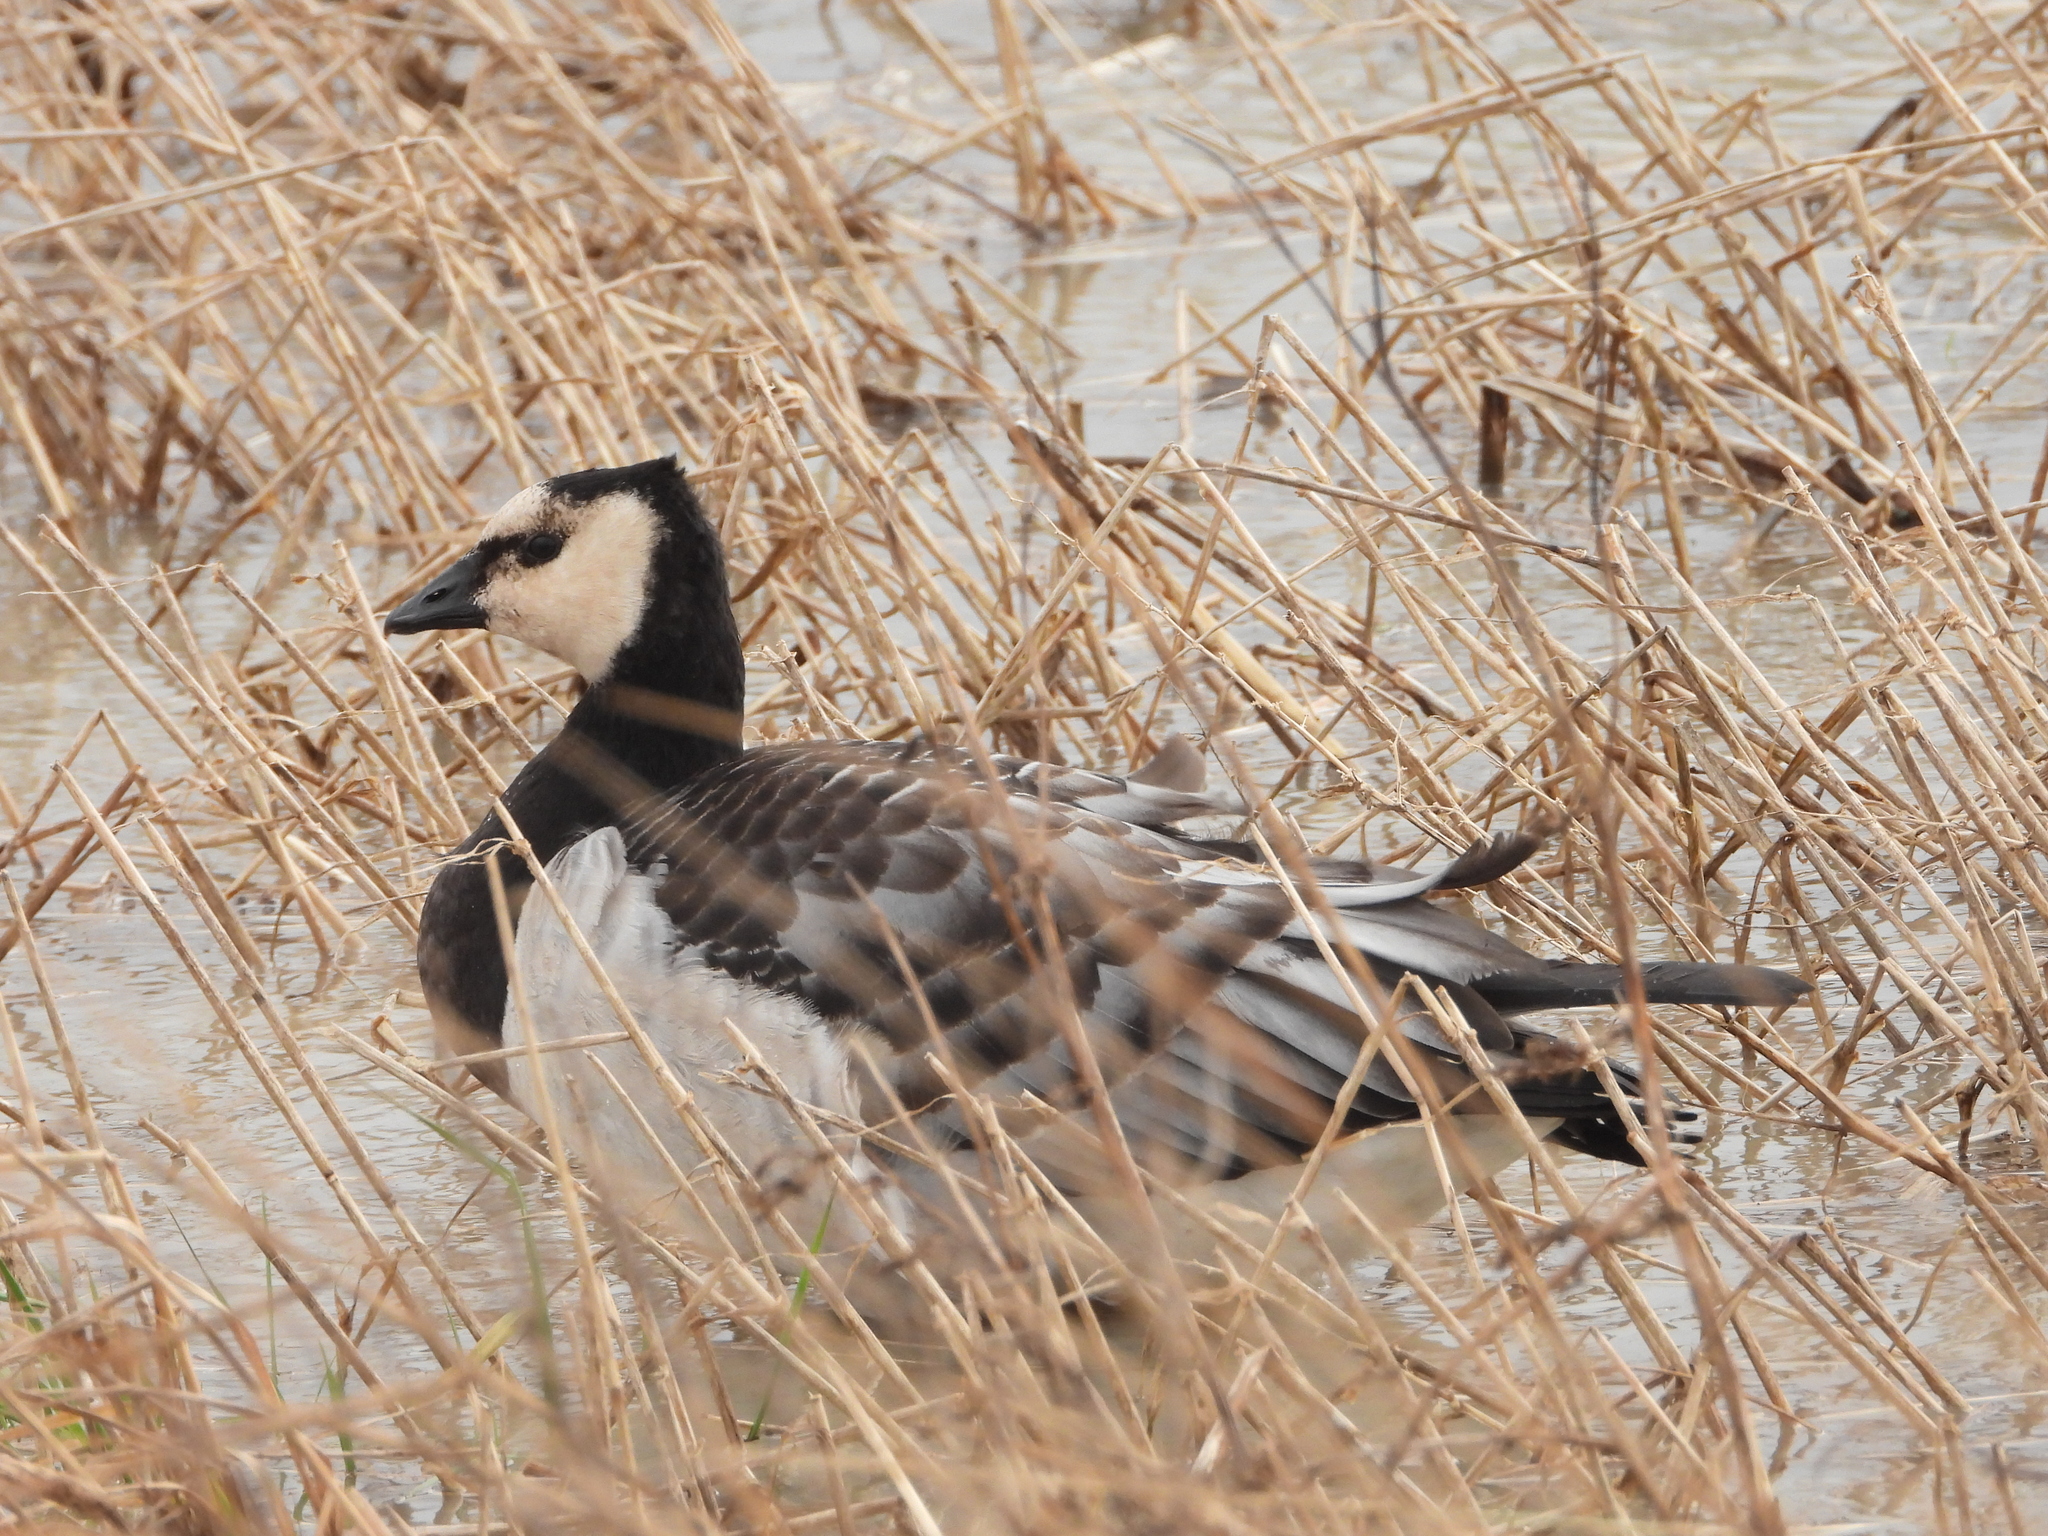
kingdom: Animalia
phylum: Chordata
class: Aves
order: Anseriformes
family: Anatidae
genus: Branta
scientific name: Branta leucopsis
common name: Barnacle goose
